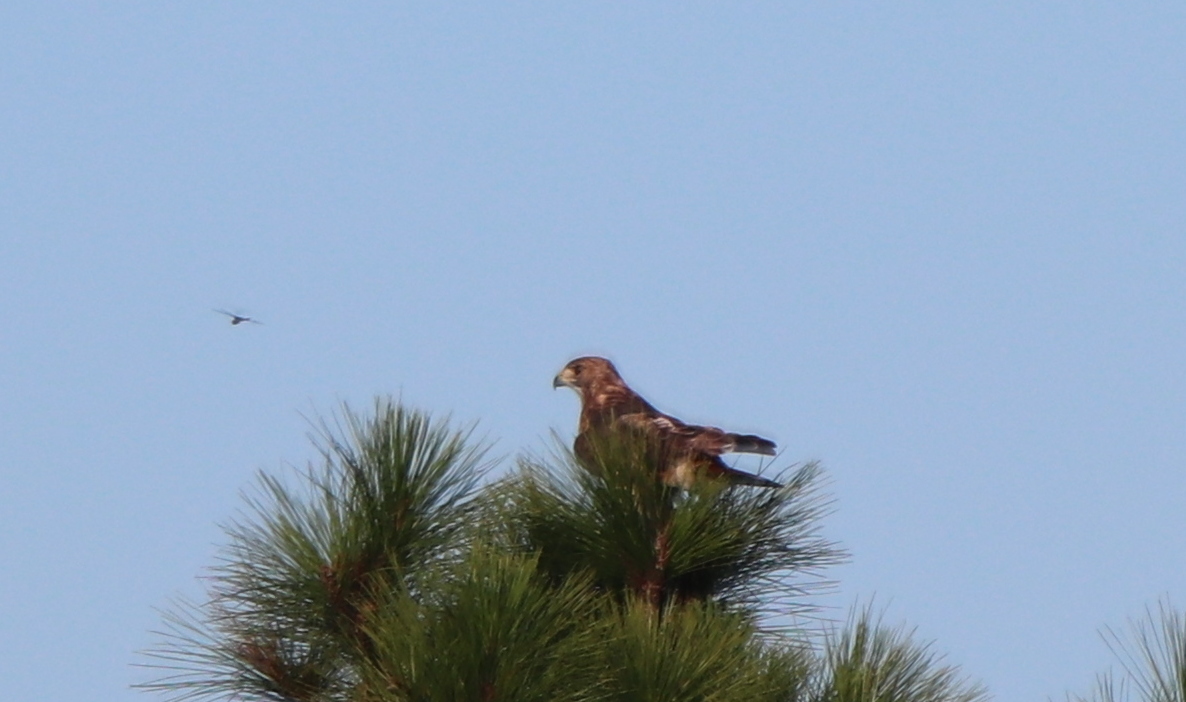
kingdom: Animalia
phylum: Chordata
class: Aves
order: Accipitriformes
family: Accipitridae
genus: Buteo
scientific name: Buteo jamaicensis
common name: Red-tailed hawk
